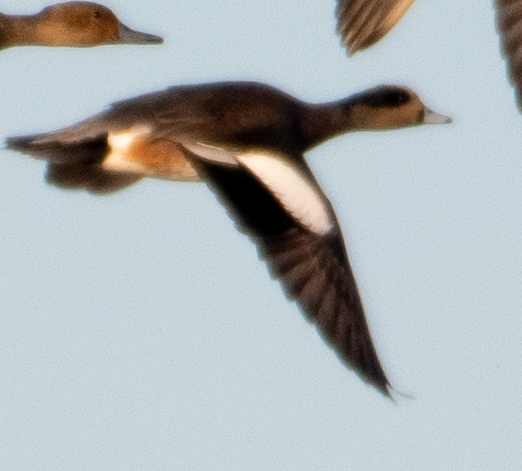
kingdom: Animalia
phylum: Chordata
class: Aves
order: Anseriformes
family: Anatidae
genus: Mareca
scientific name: Mareca americana
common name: American wigeon
